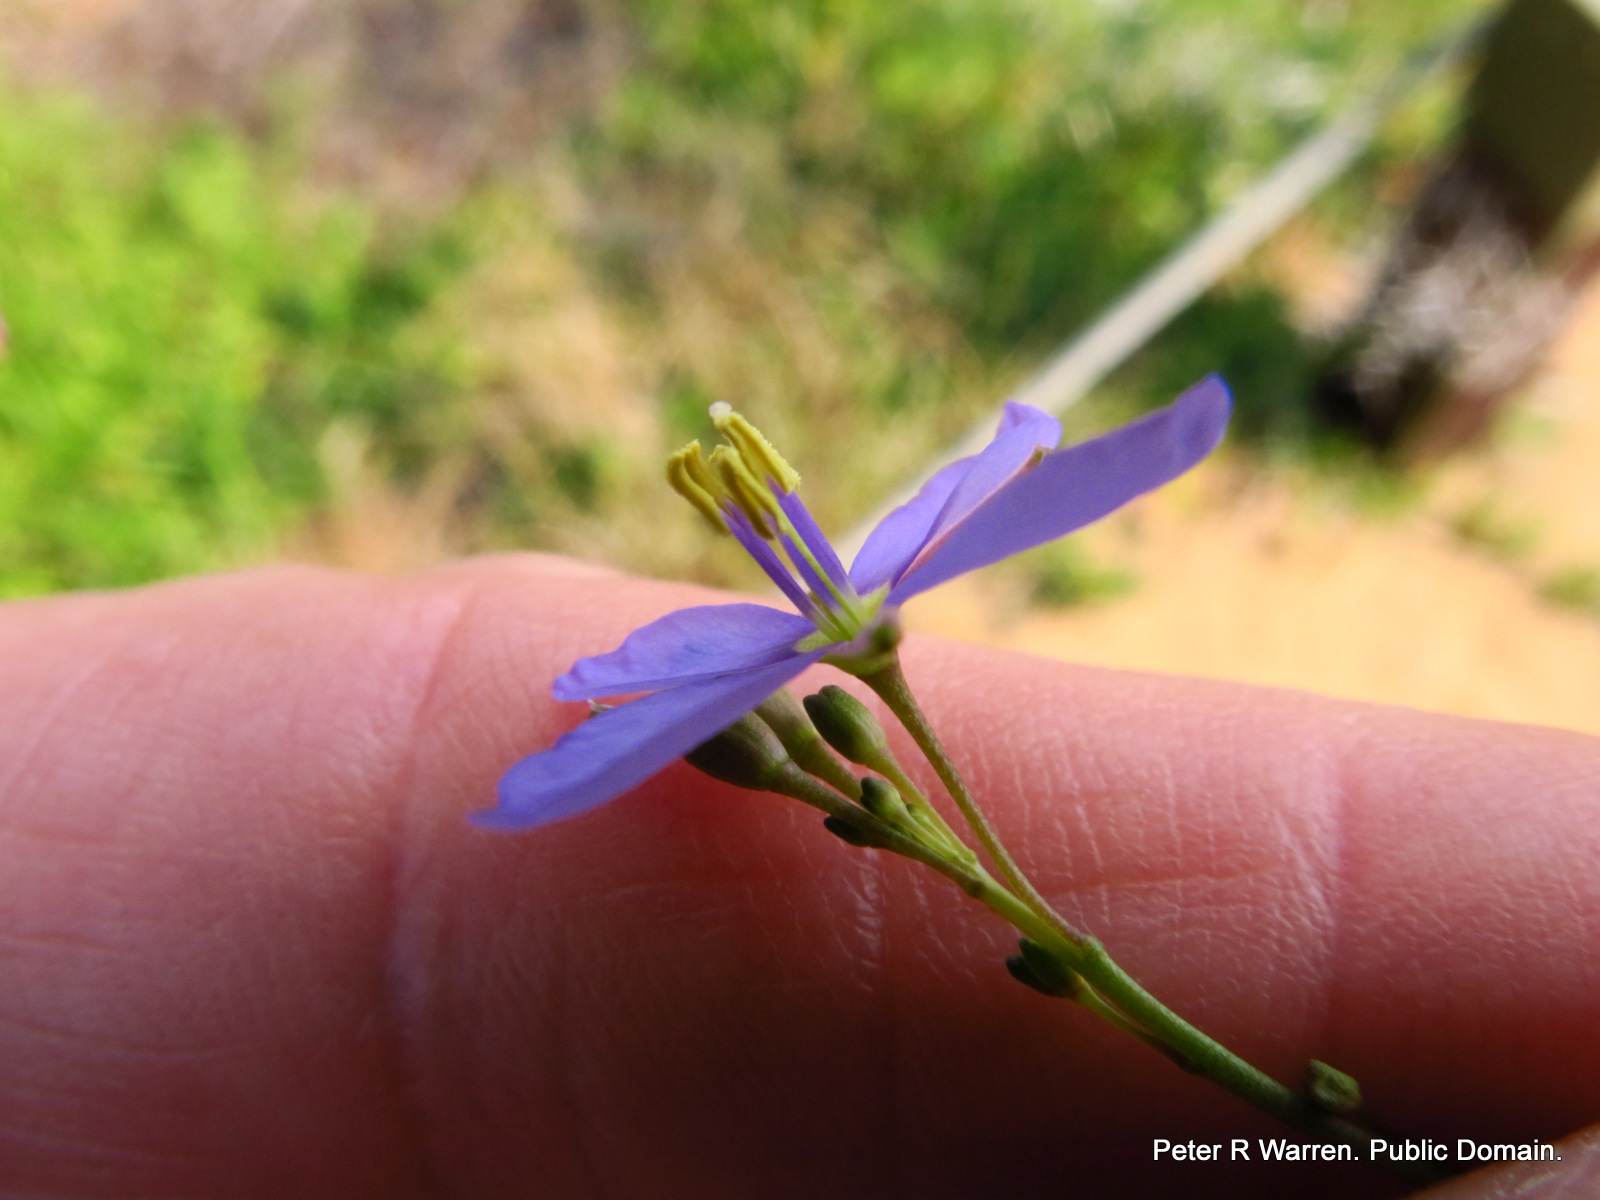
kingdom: Plantae
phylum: Tracheophyta
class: Magnoliopsida
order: Brassicales
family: Brassicaceae
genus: Heliophila
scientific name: Heliophila subulata
